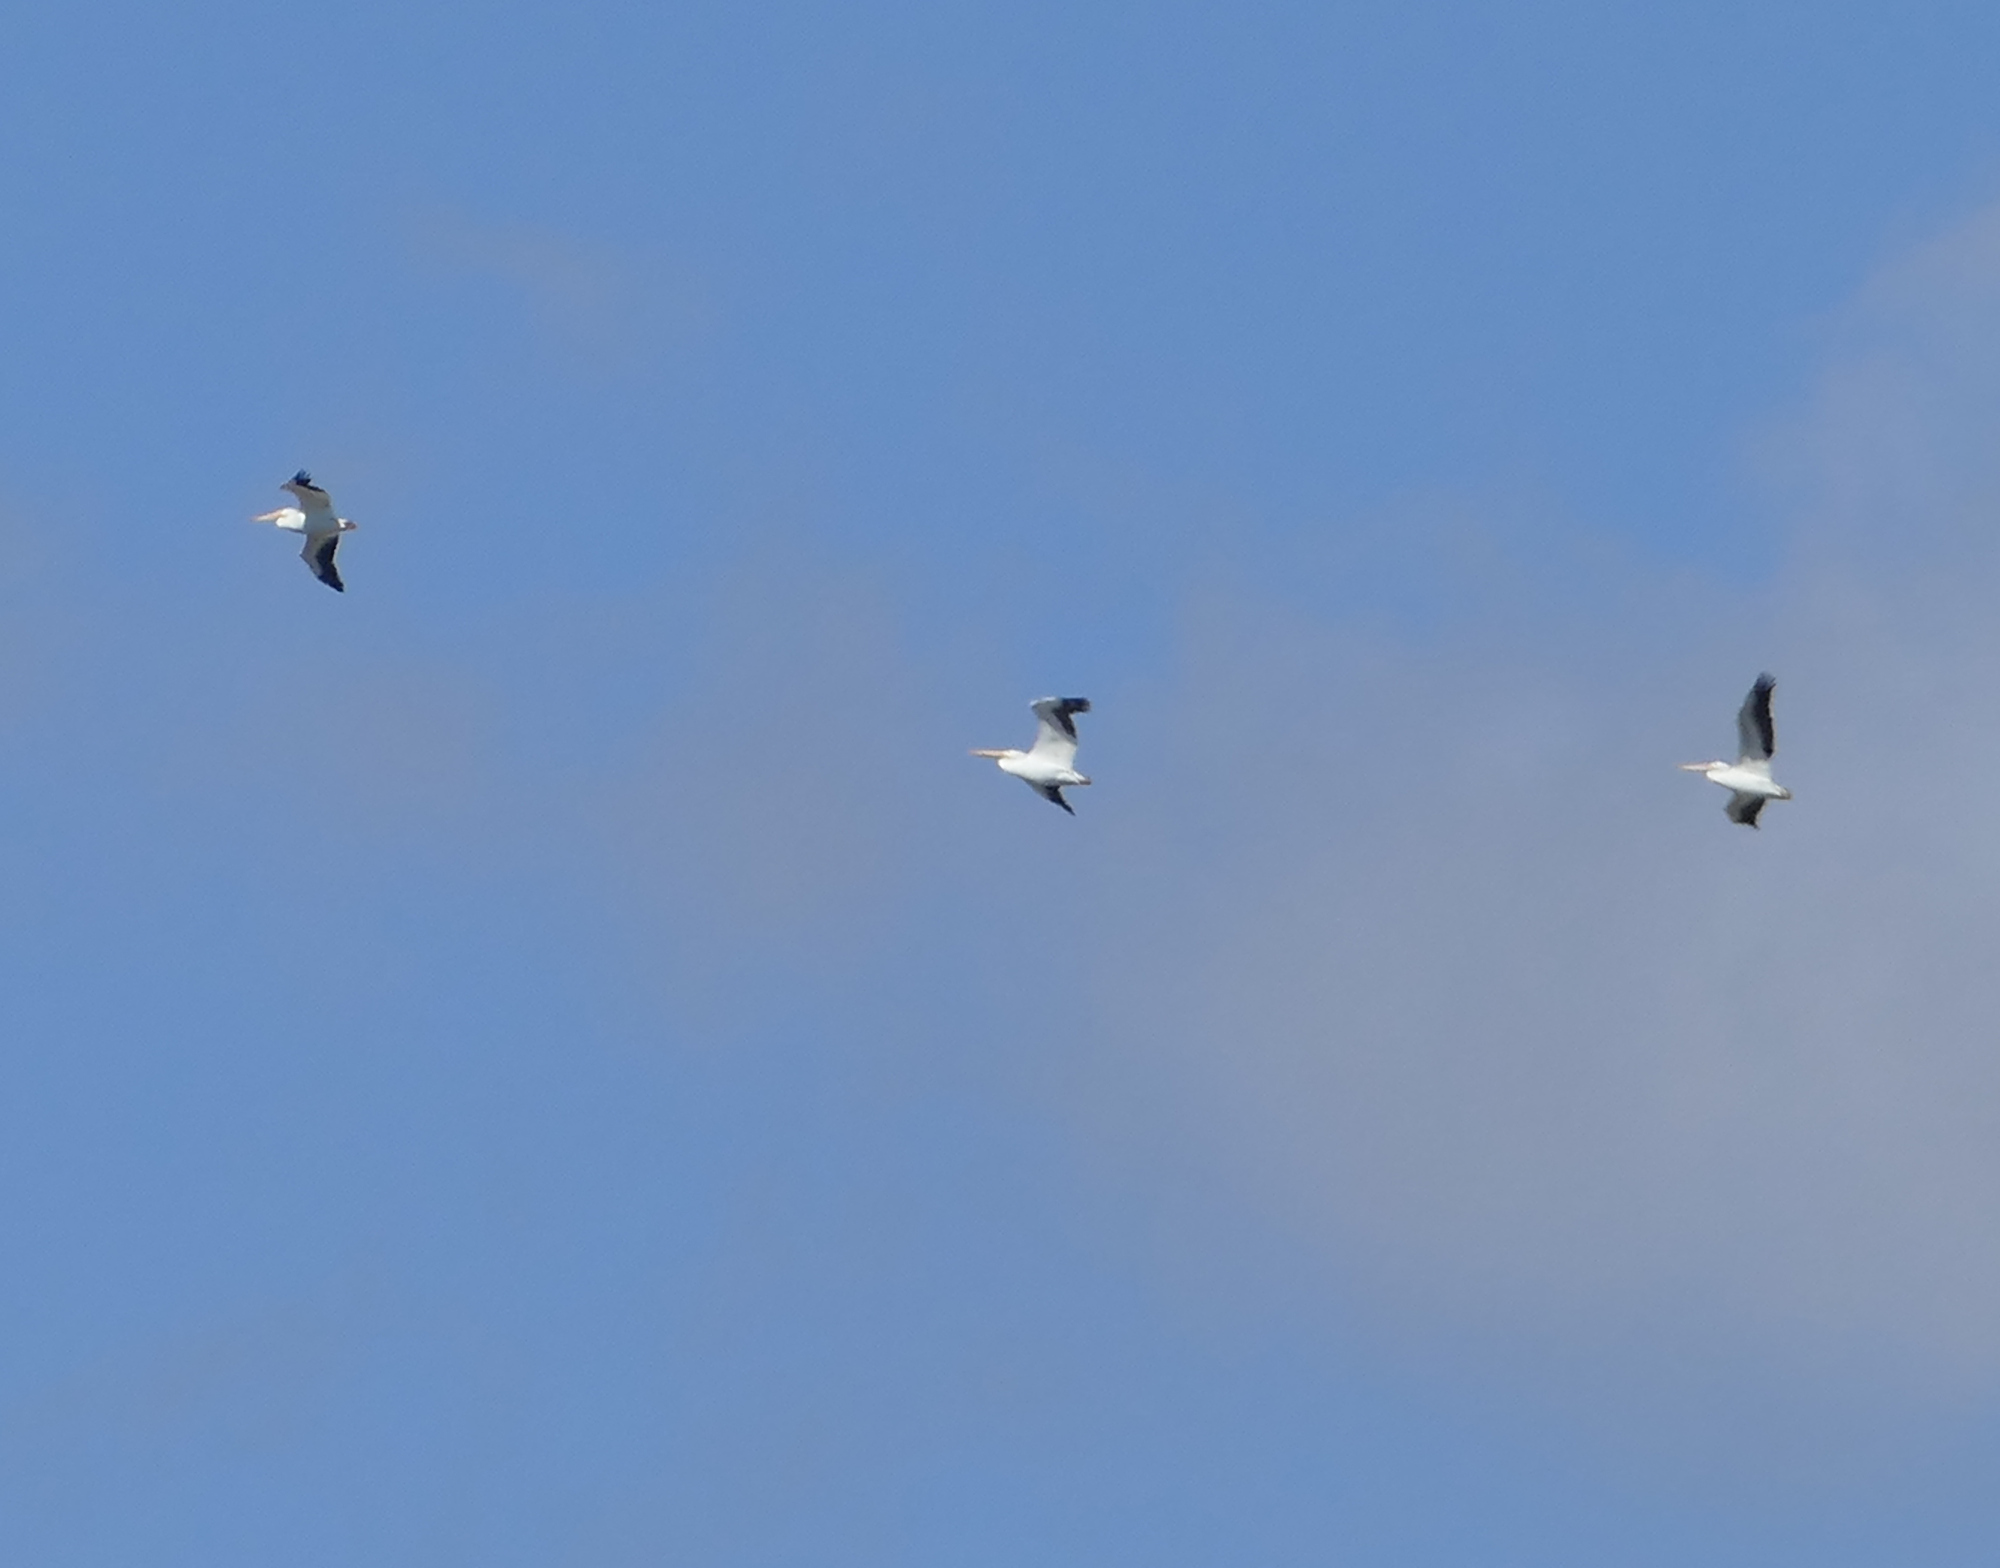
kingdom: Animalia
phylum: Chordata
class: Aves
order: Pelecaniformes
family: Pelecanidae
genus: Pelecanus
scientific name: Pelecanus erythrorhynchos
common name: American white pelican
